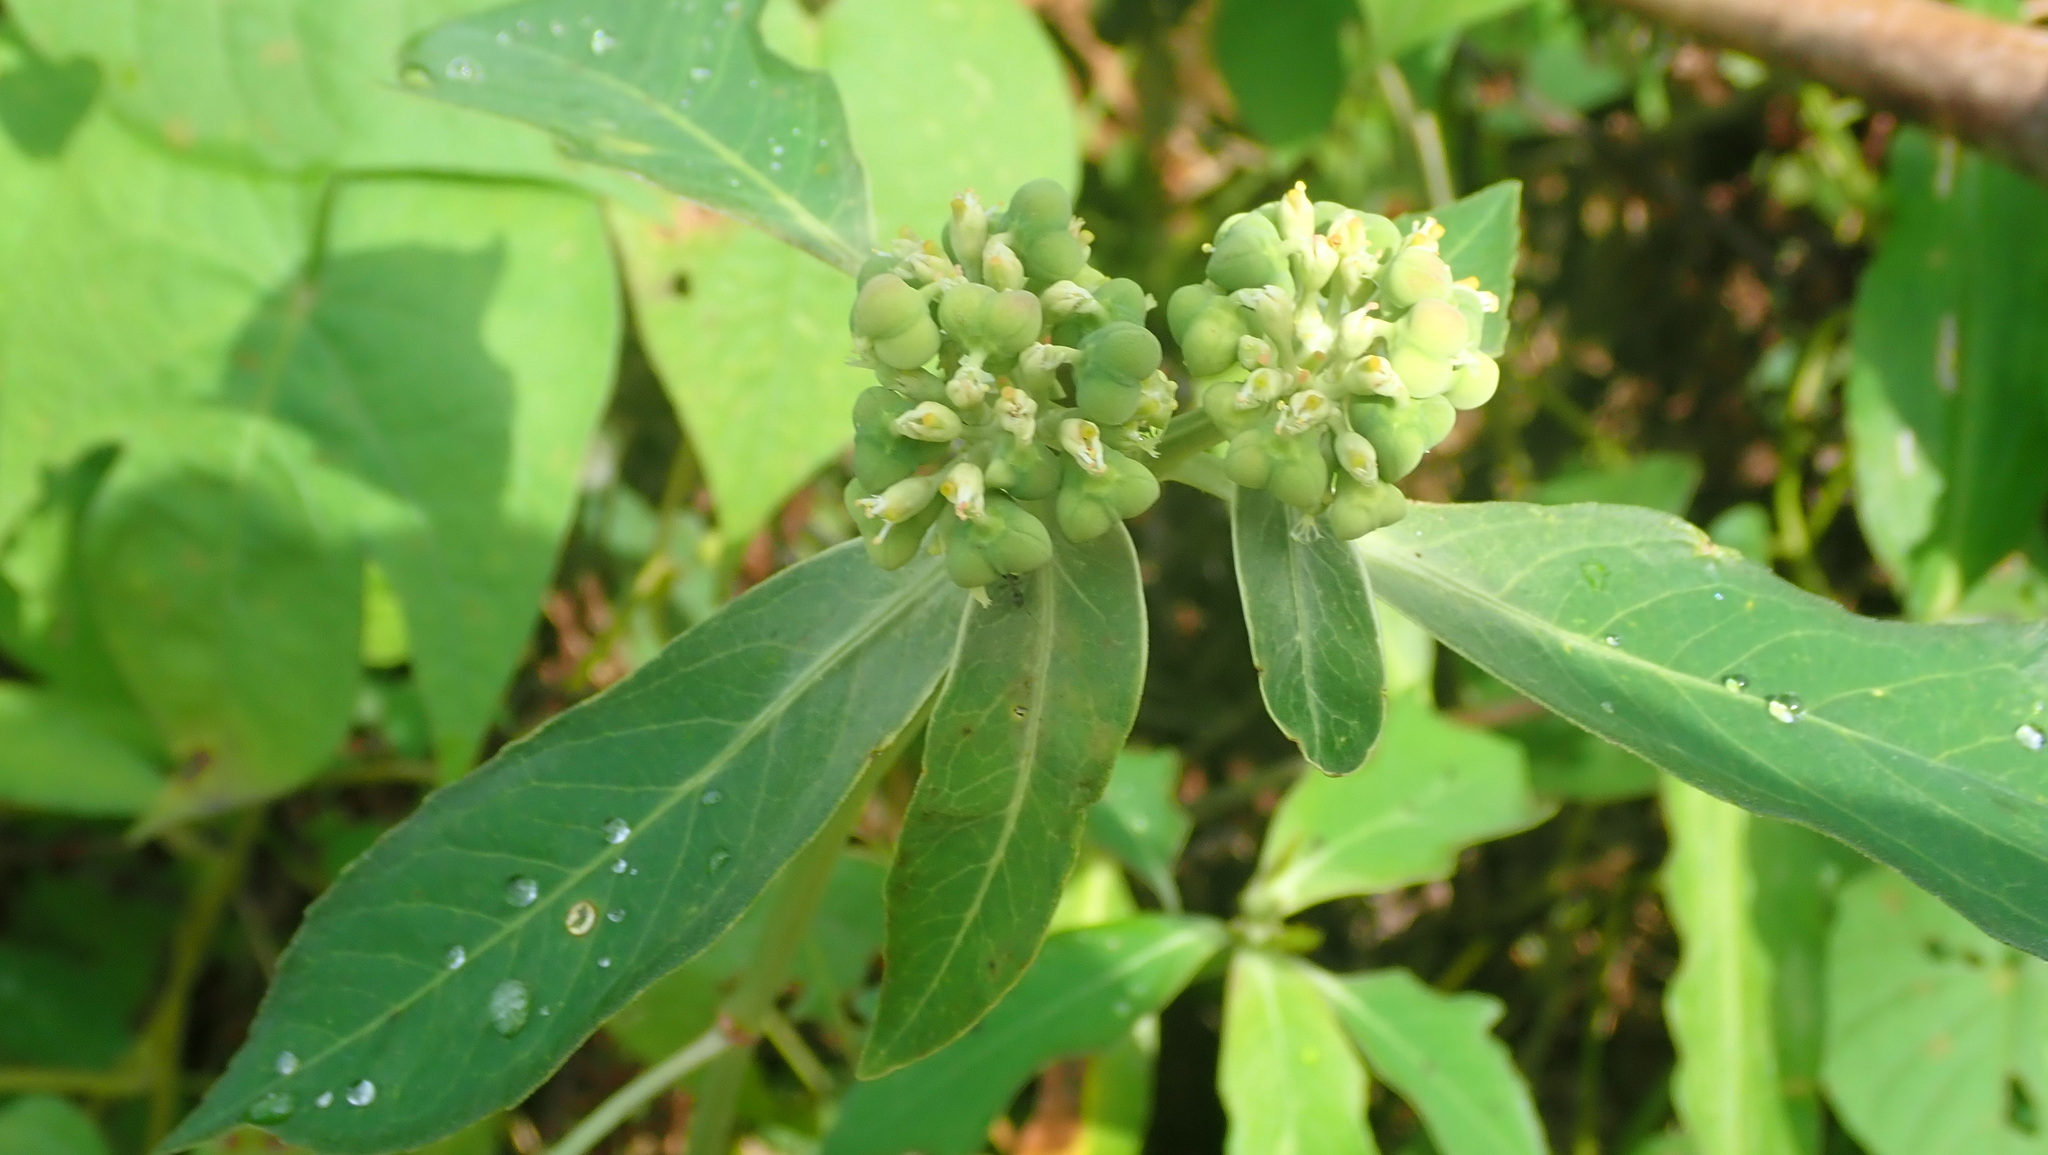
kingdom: Plantae
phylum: Tracheophyta
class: Magnoliopsida
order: Malpighiales
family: Euphorbiaceae
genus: Euphorbia
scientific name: Euphorbia heterophylla
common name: Mexican fireplant
